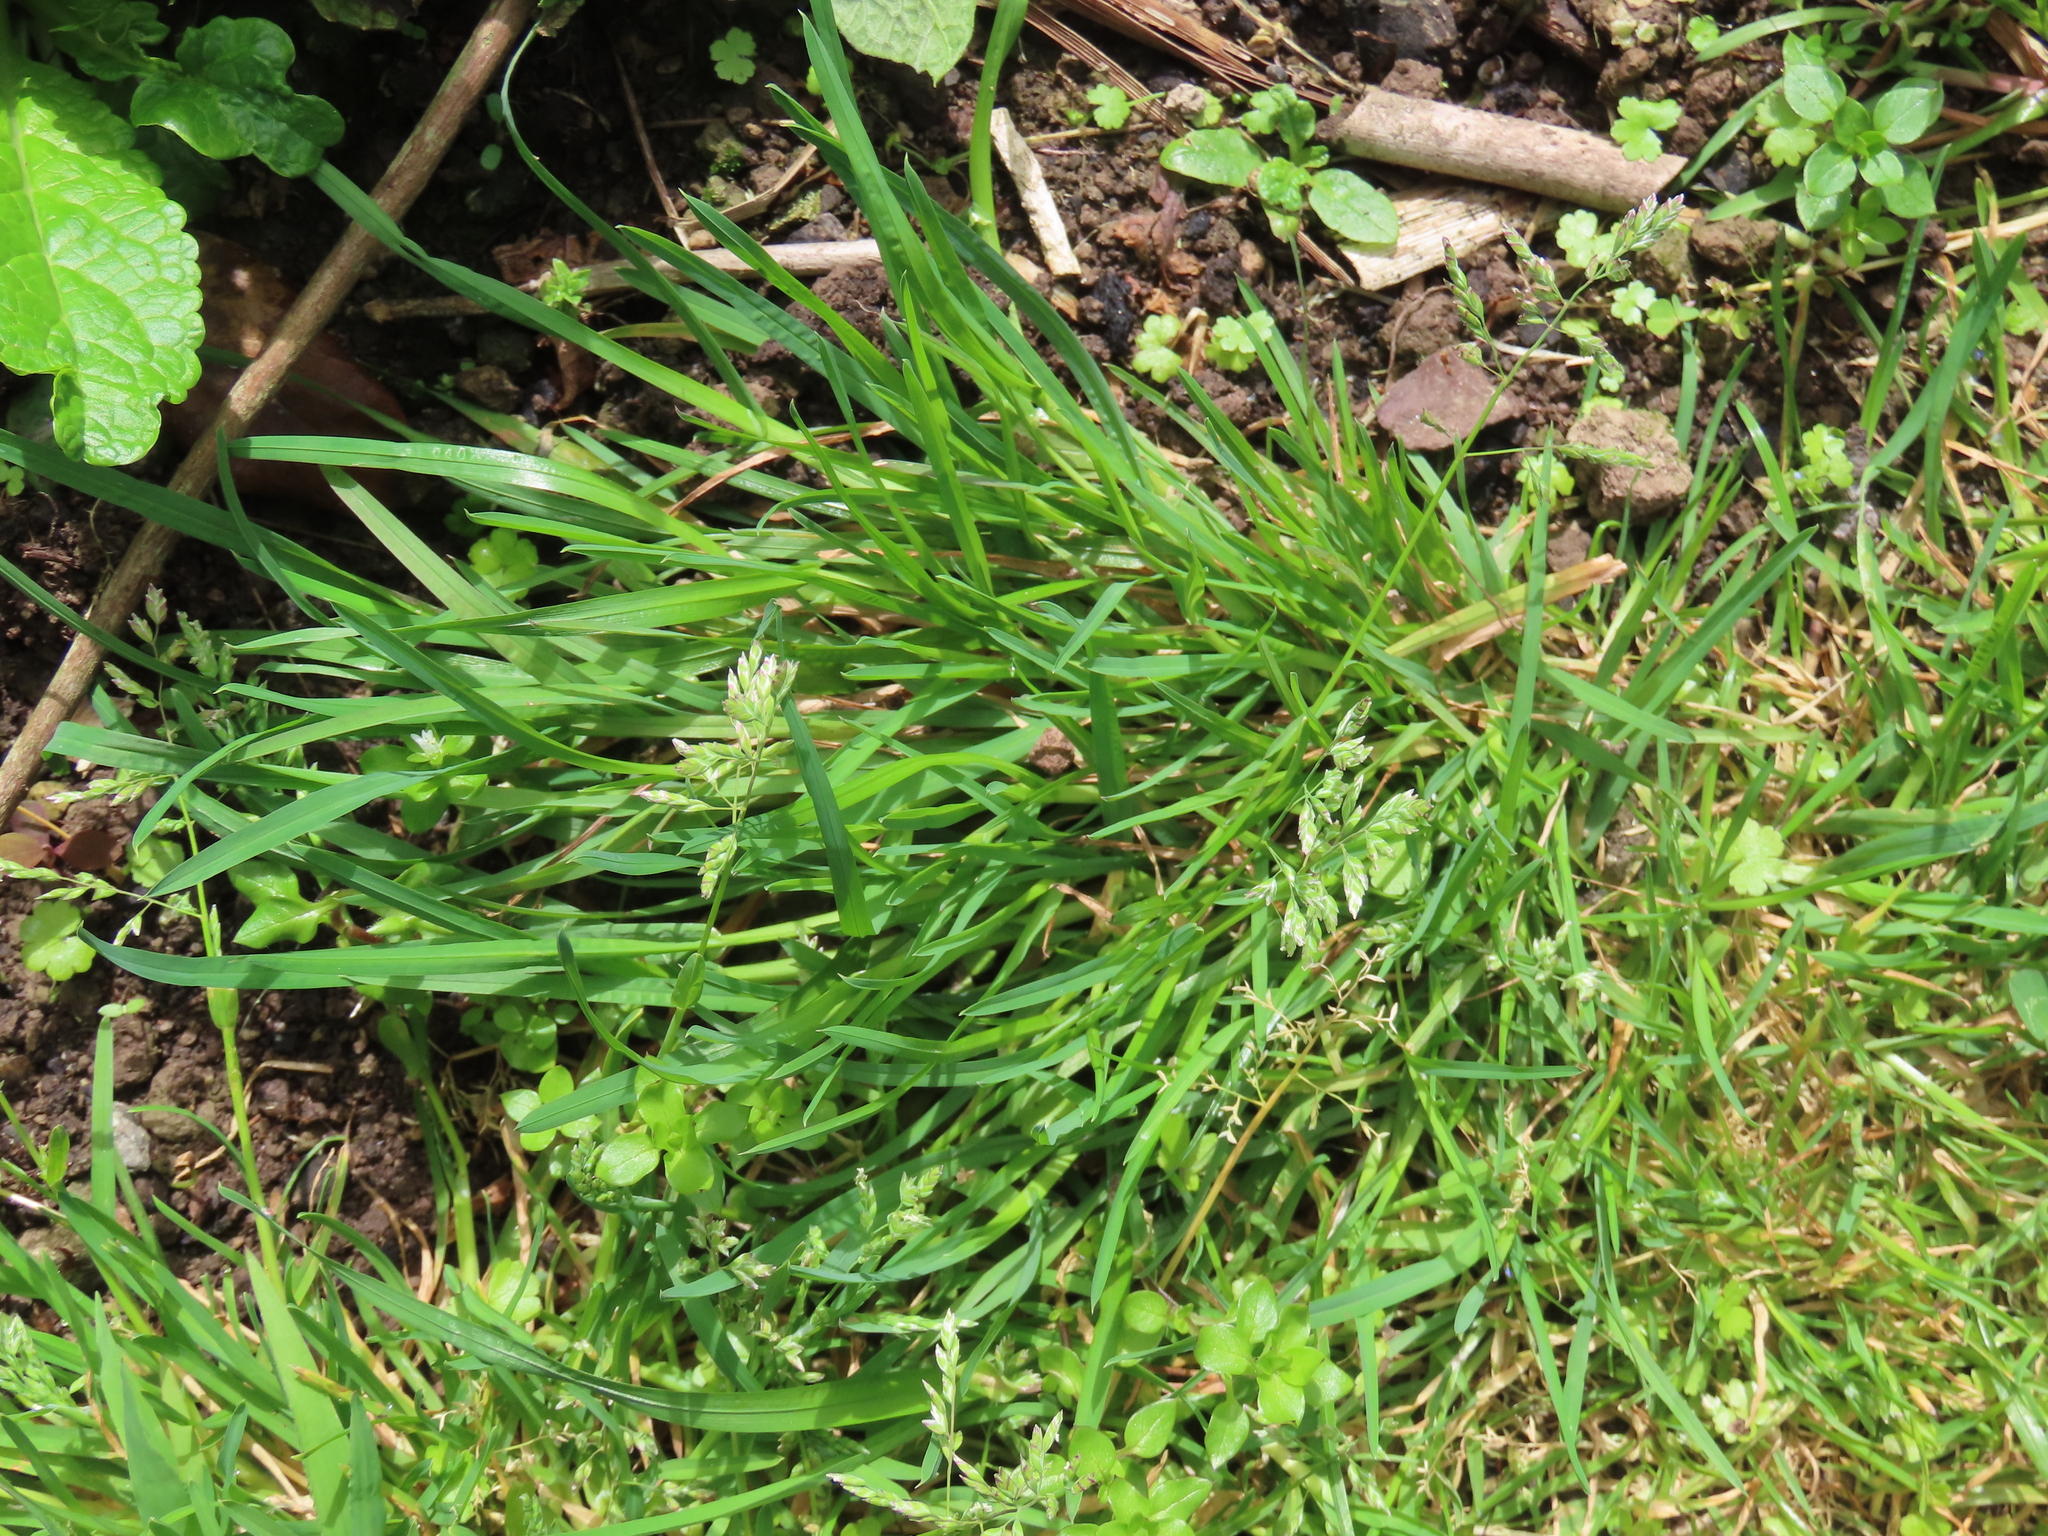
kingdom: Plantae
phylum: Tracheophyta
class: Liliopsida
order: Poales
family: Poaceae
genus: Poa
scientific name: Poa annua
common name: Annual bluegrass
